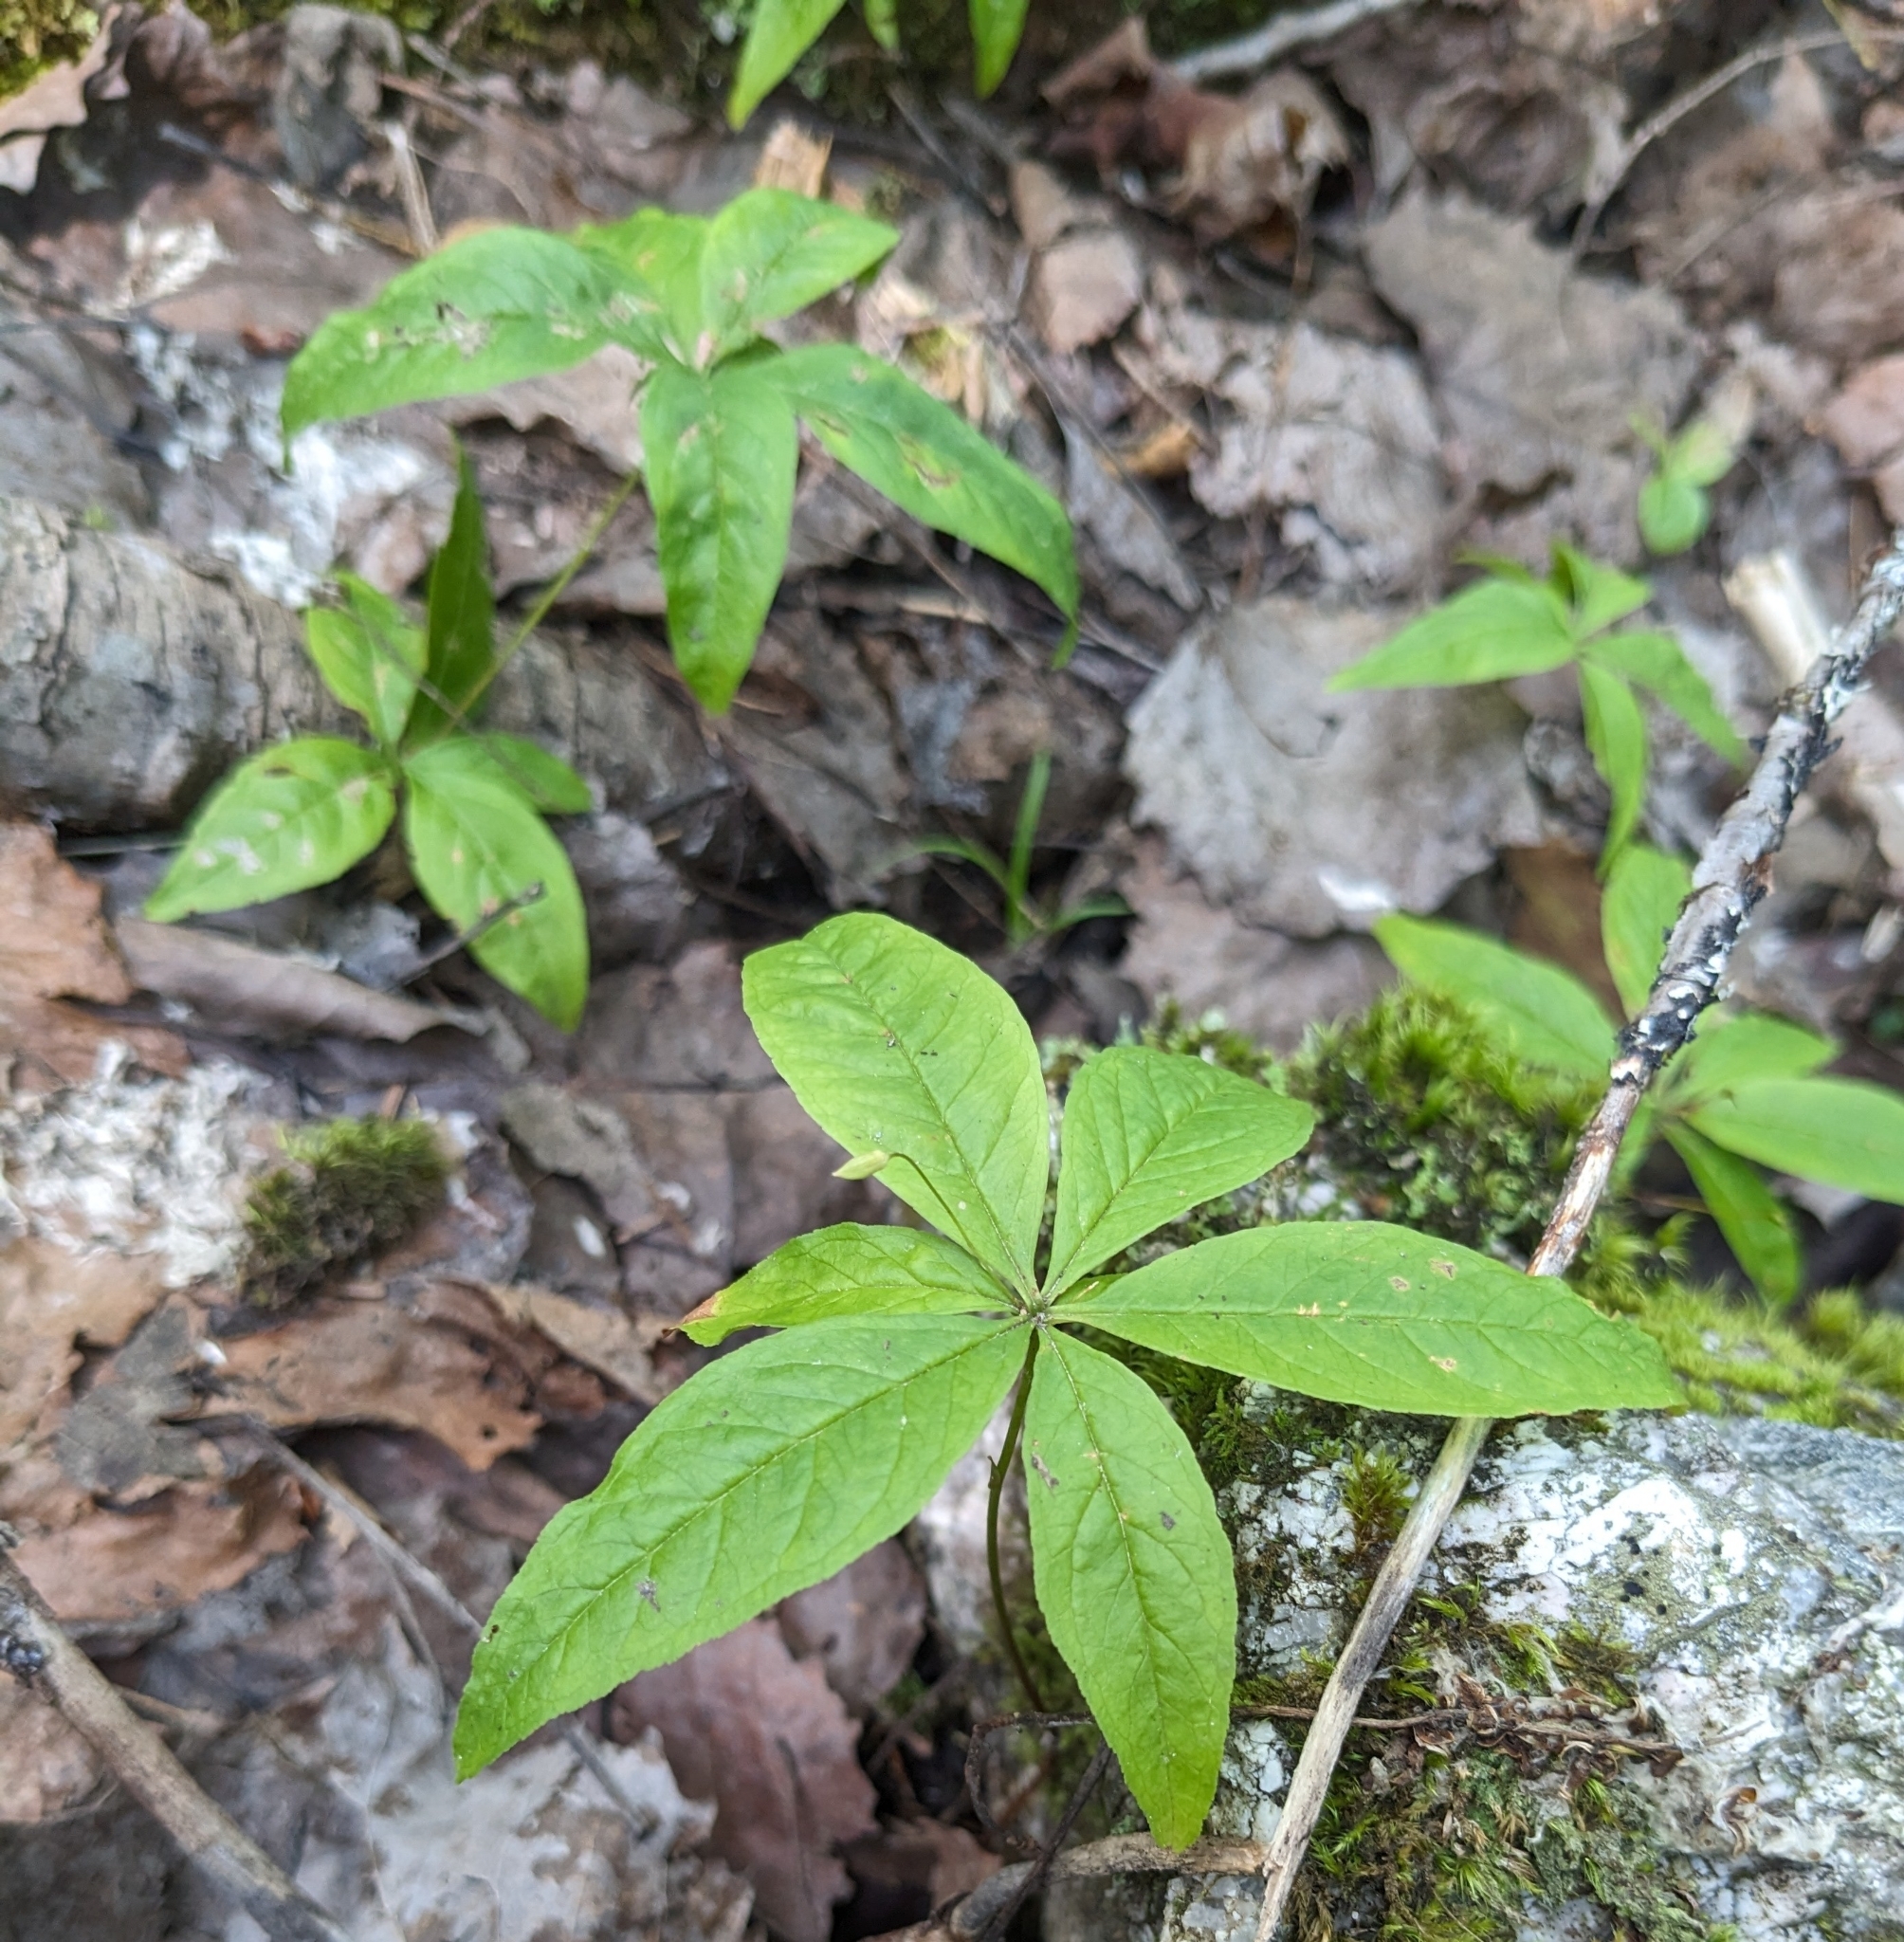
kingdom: Plantae
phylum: Tracheophyta
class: Magnoliopsida
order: Ericales
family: Primulaceae
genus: Lysimachia
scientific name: Lysimachia borealis
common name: American starflower
